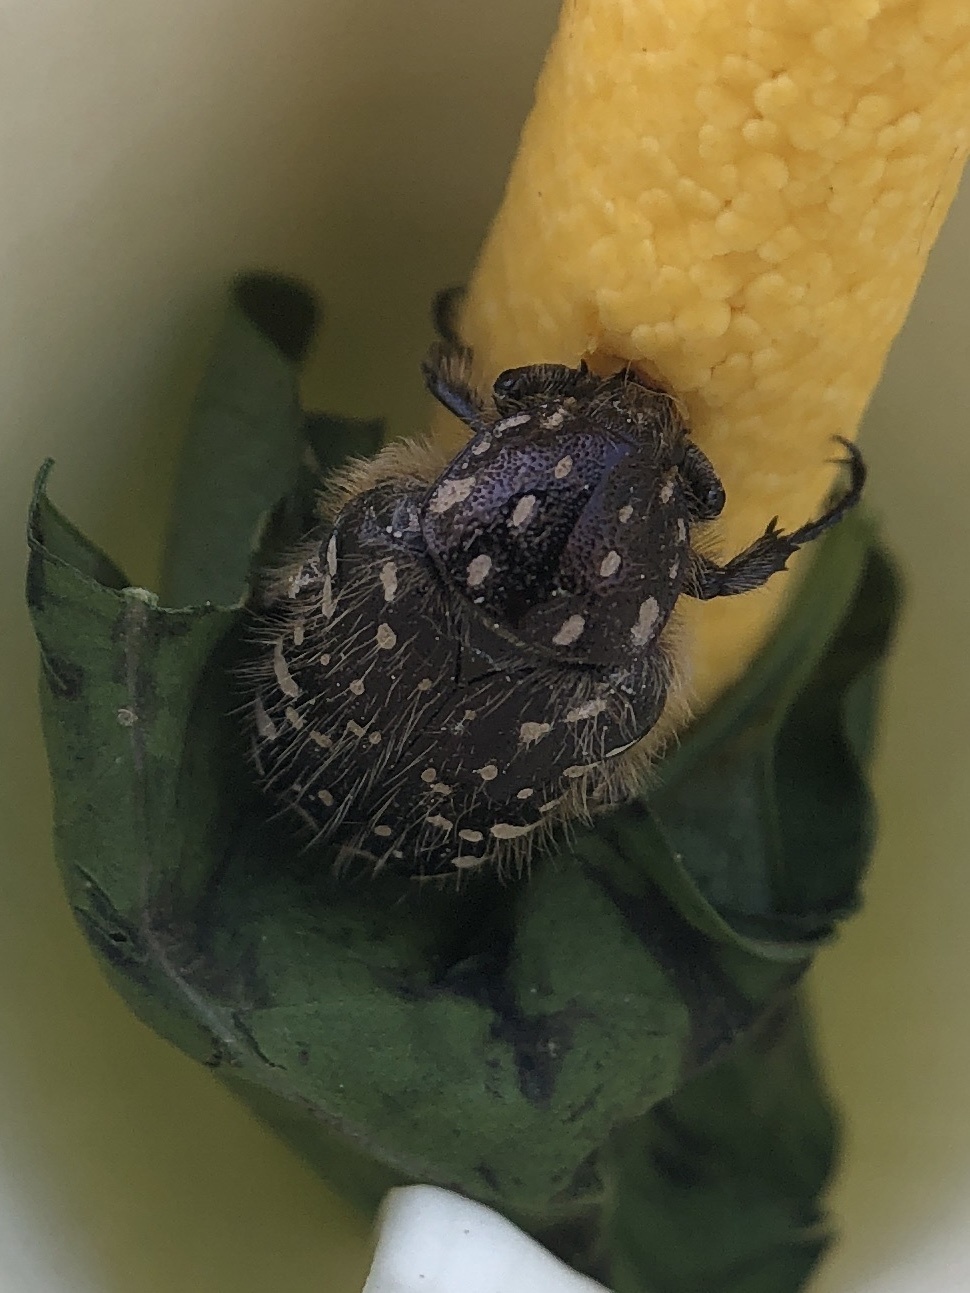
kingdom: Animalia
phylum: Arthropoda
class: Insecta
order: Coleoptera
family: Scarabaeidae
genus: Oxythyrea
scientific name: Oxythyrea funesta
